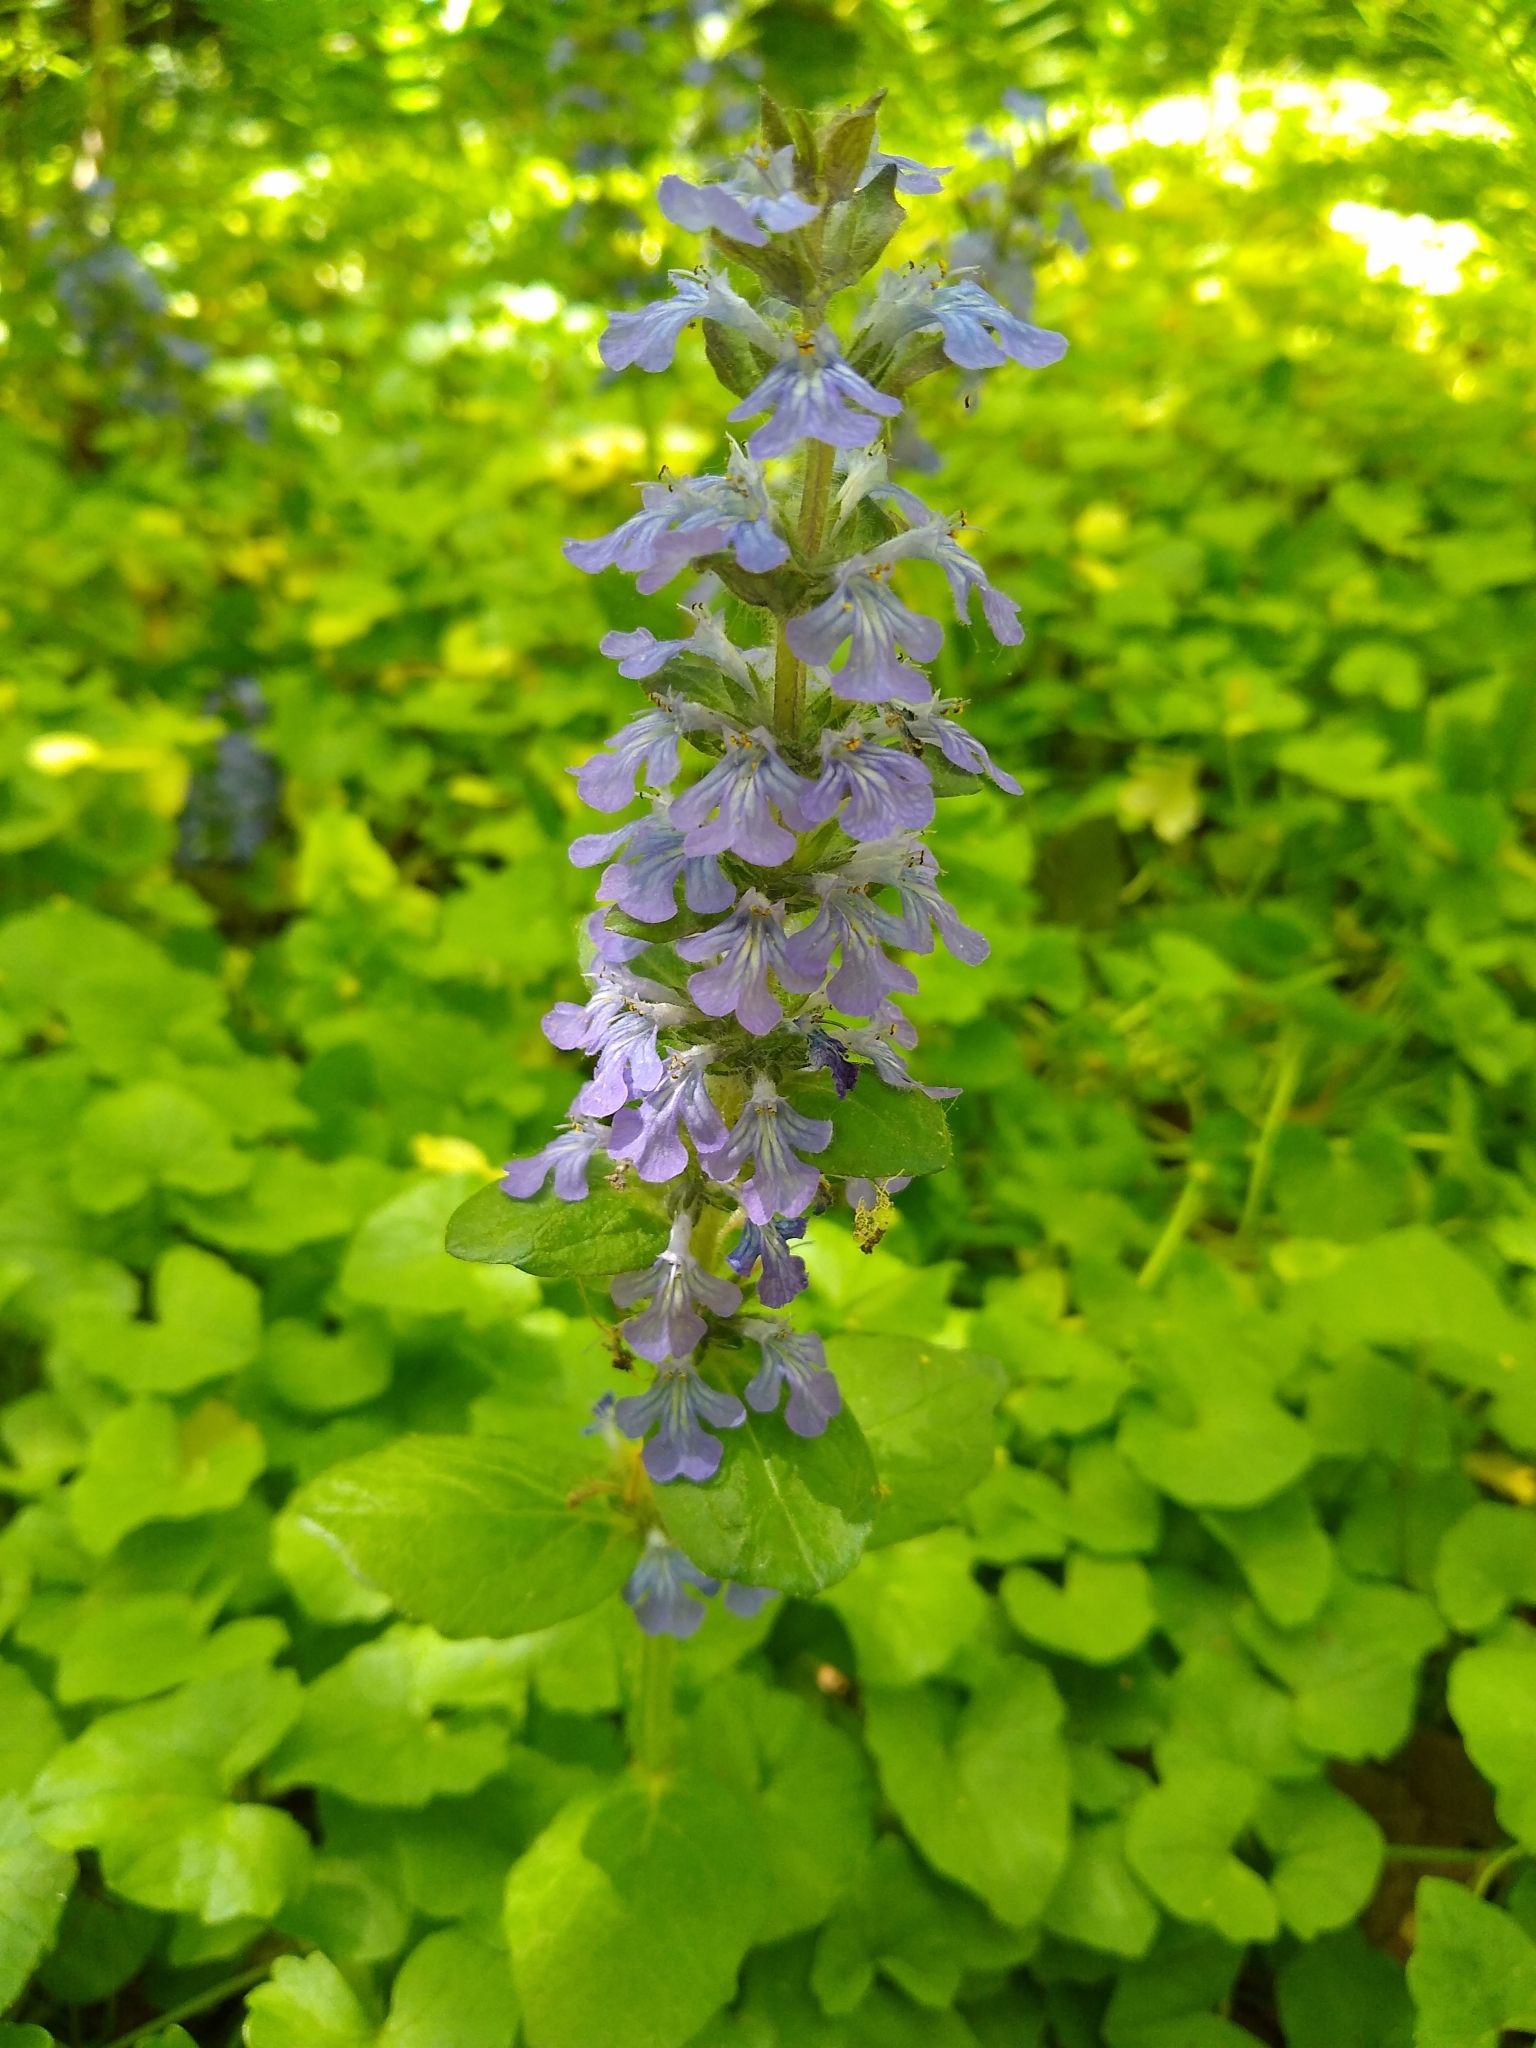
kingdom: Plantae
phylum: Tracheophyta
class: Magnoliopsida
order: Lamiales
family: Lamiaceae
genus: Ajuga
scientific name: Ajuga reptans
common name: Bugle
